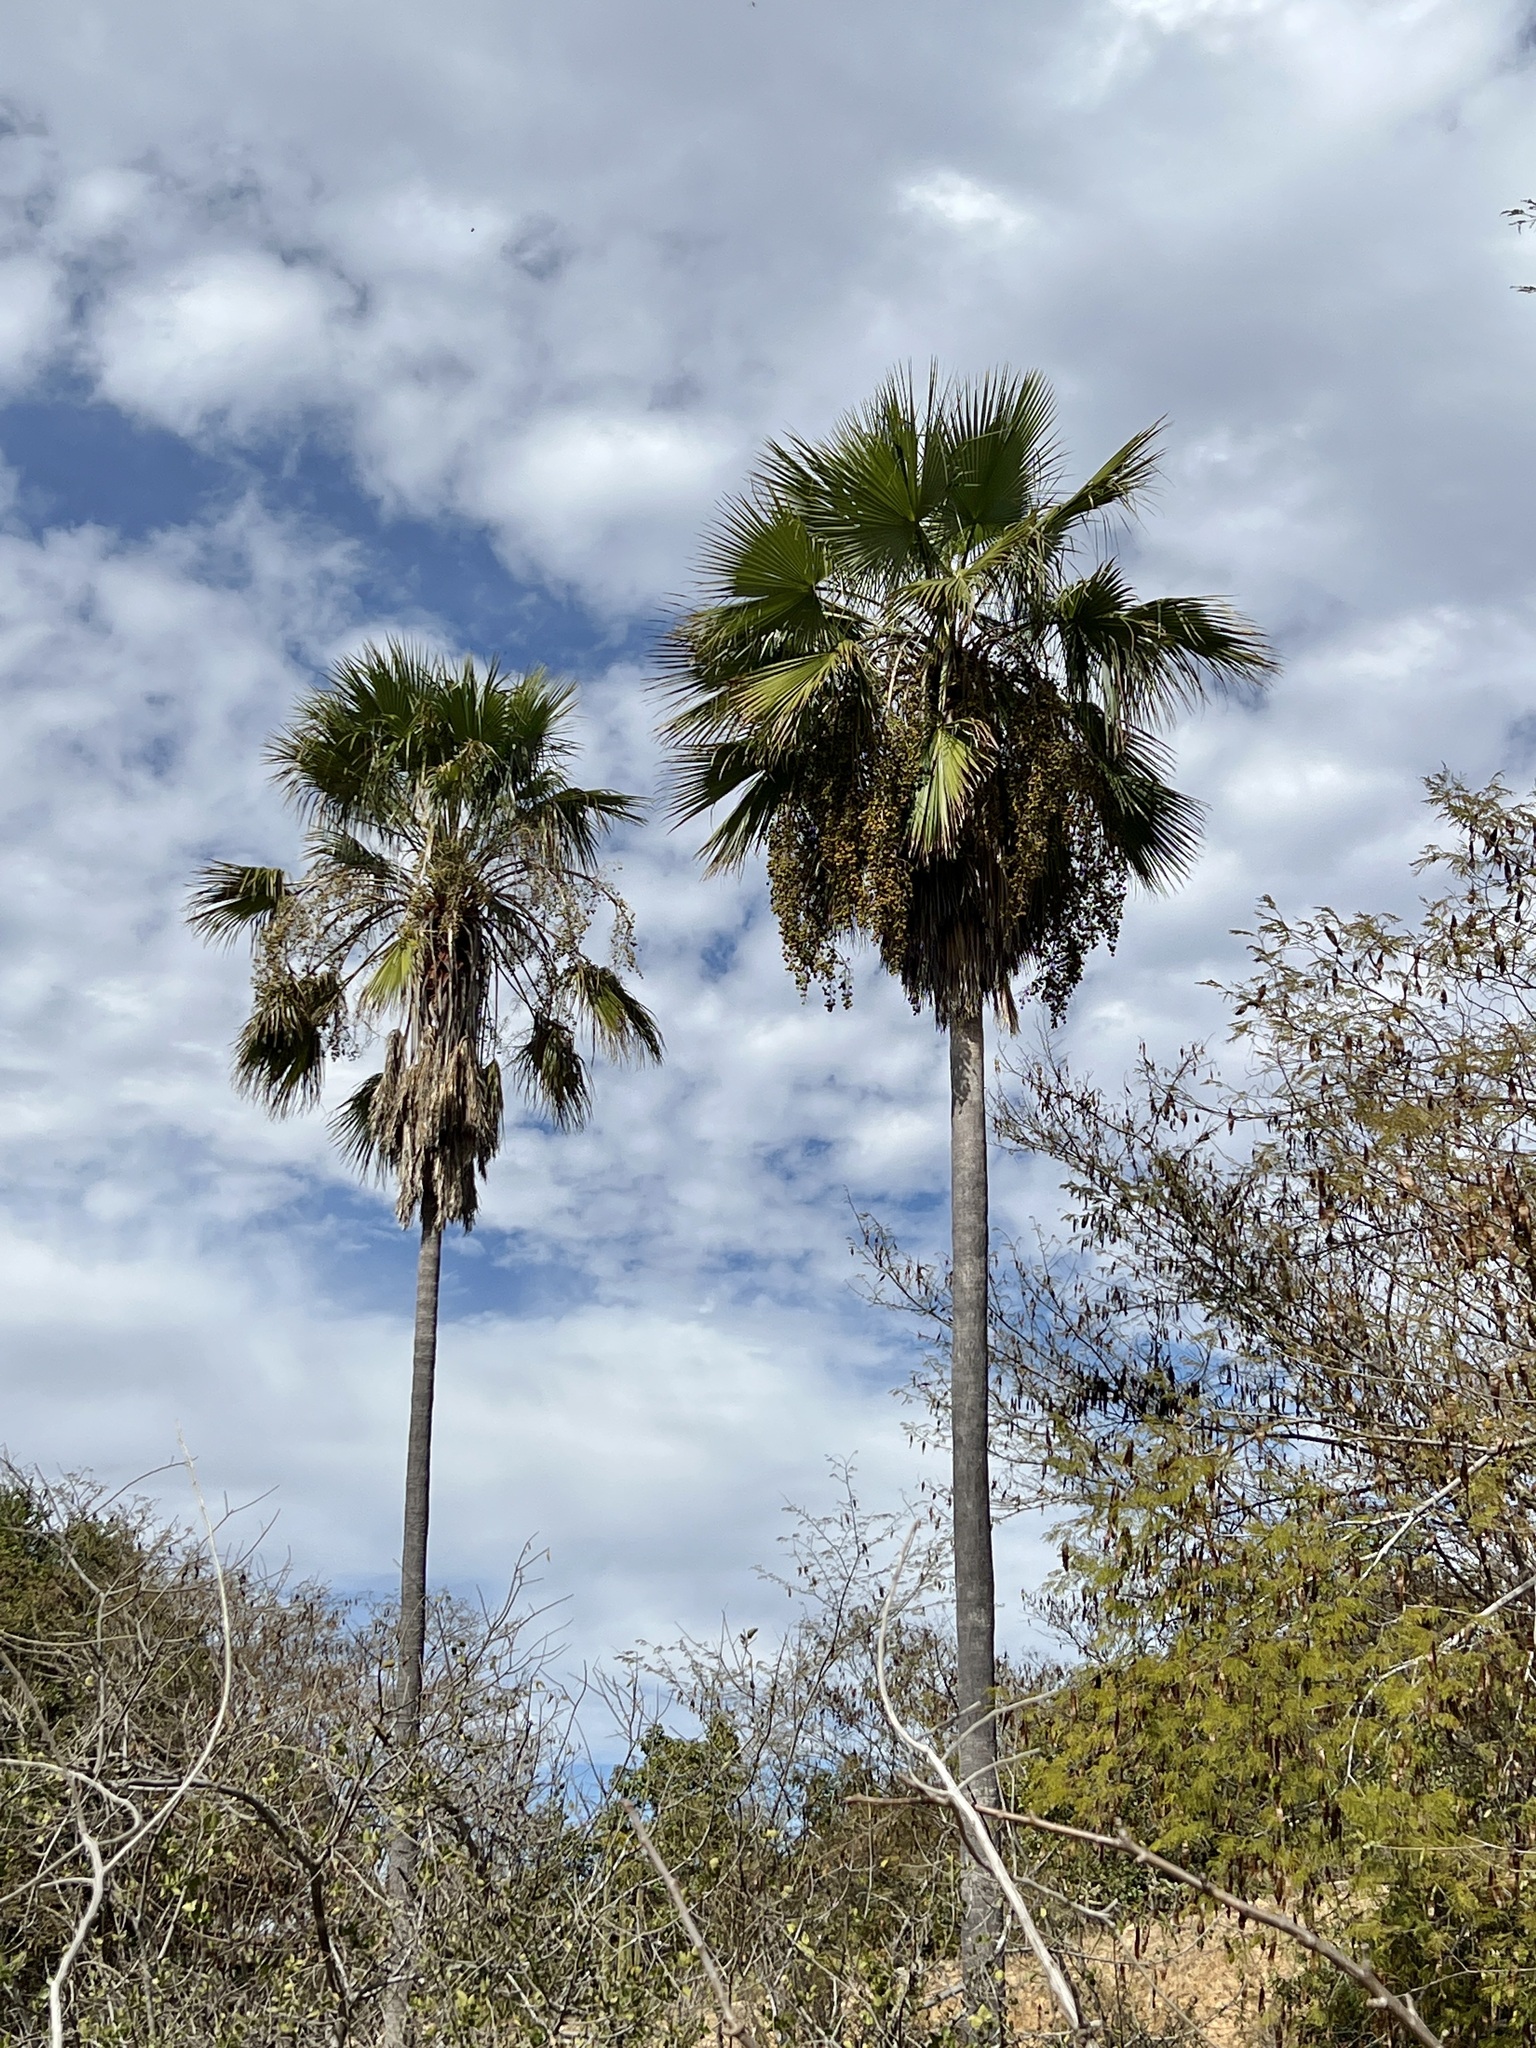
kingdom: Plantae
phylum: Tracheophyta
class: Liliopsida
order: Arecales
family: Arecaceae
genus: Brahea
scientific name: Brahea brandegeei
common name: San jose hesper palm
